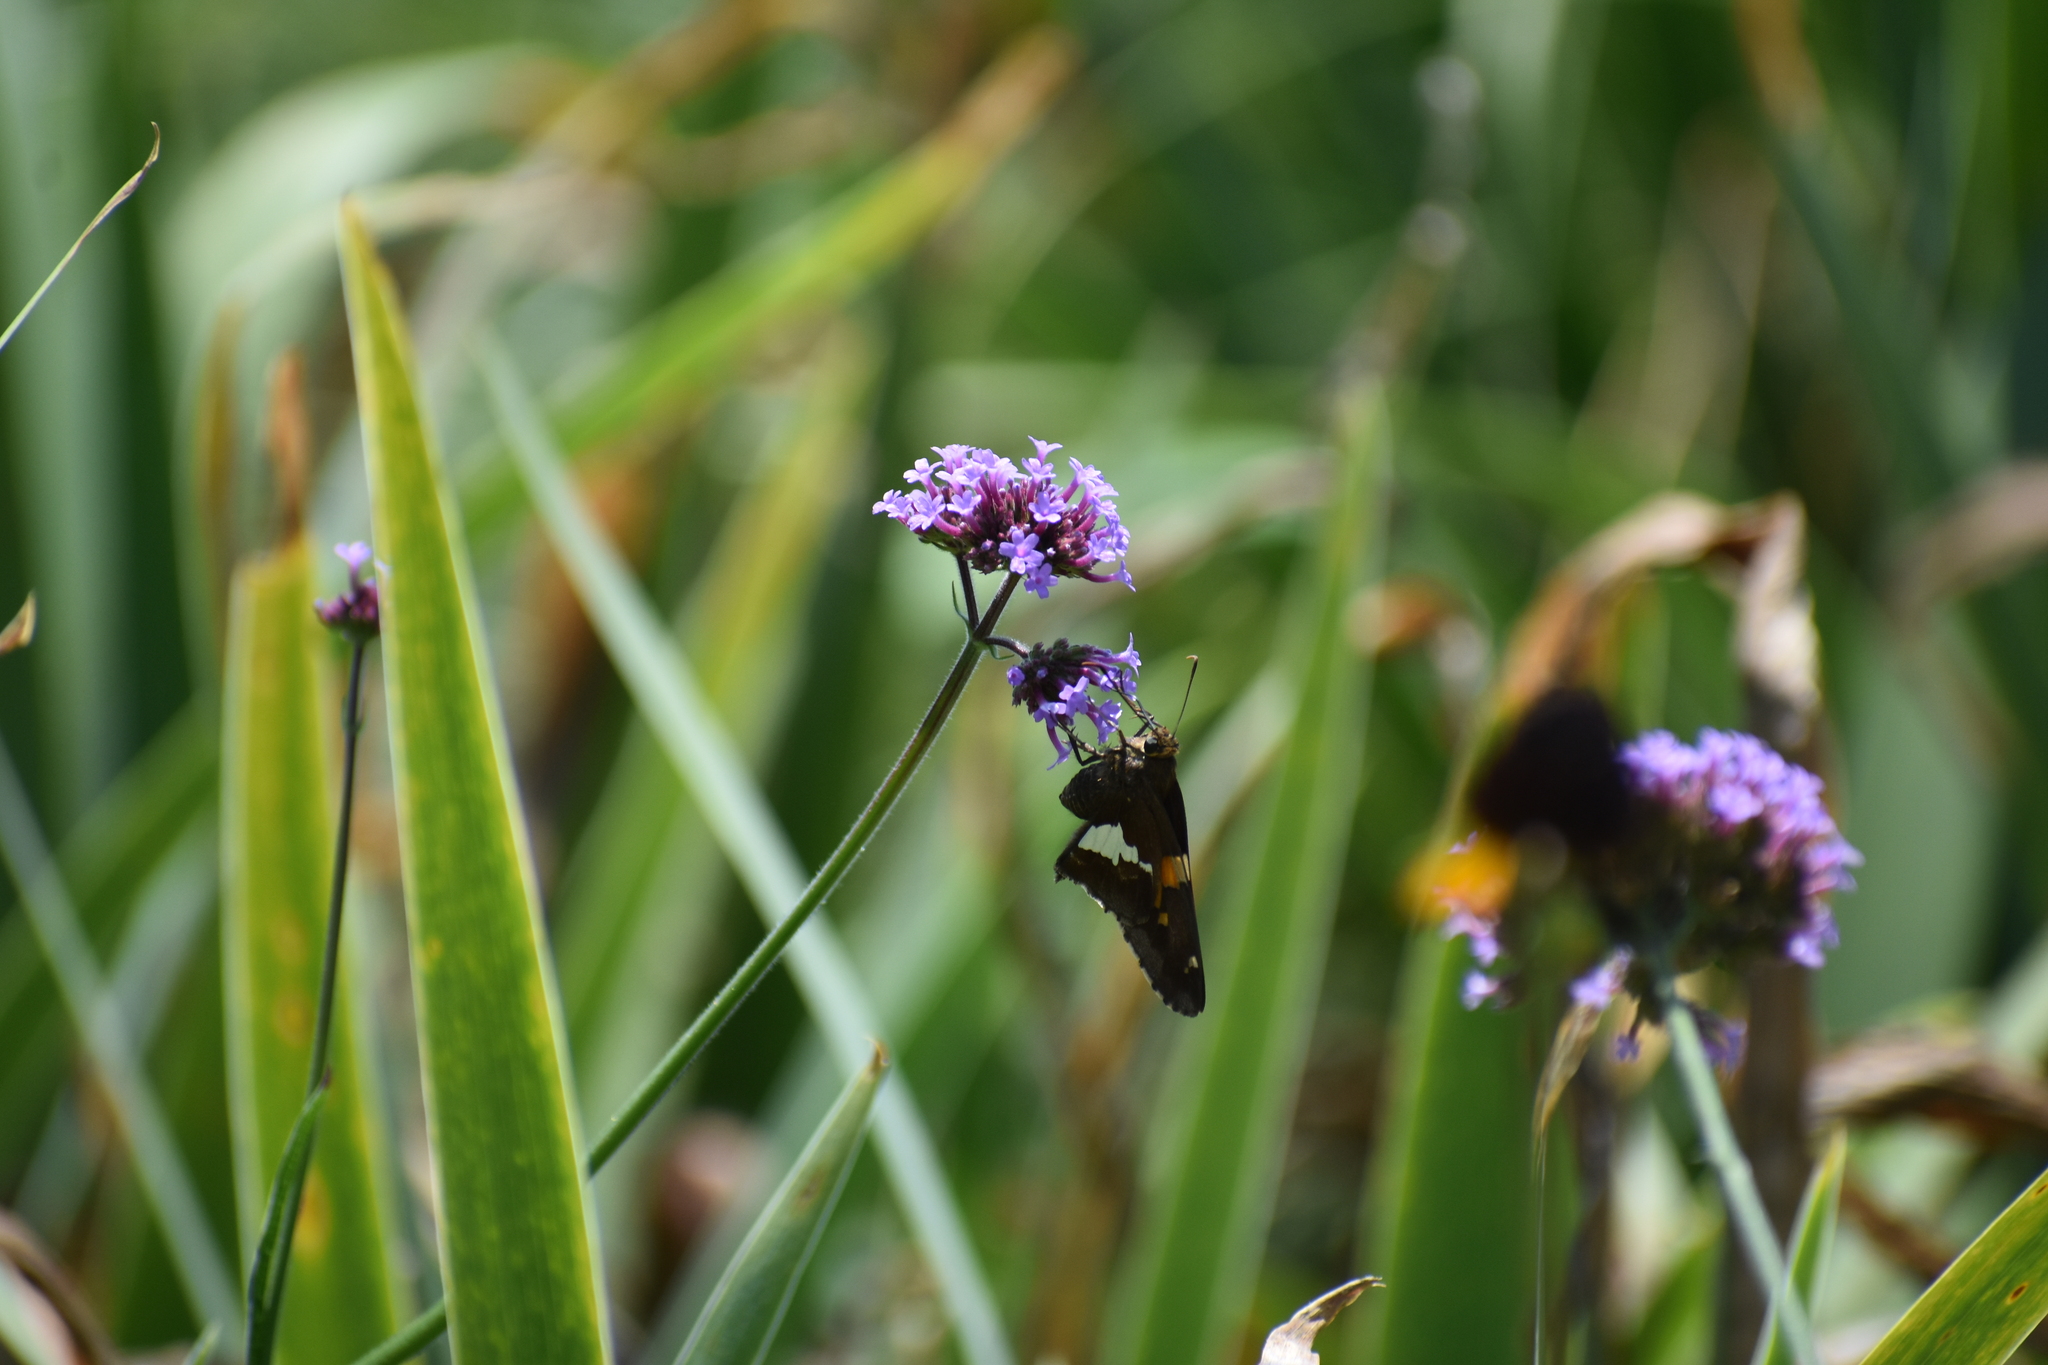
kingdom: Animalia
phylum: Arthropoda
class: Insecta
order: Lepidoptera
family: Hesperiidae
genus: Epargyreus
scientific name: Epargyreus clarus
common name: Silver-spotted skipper
